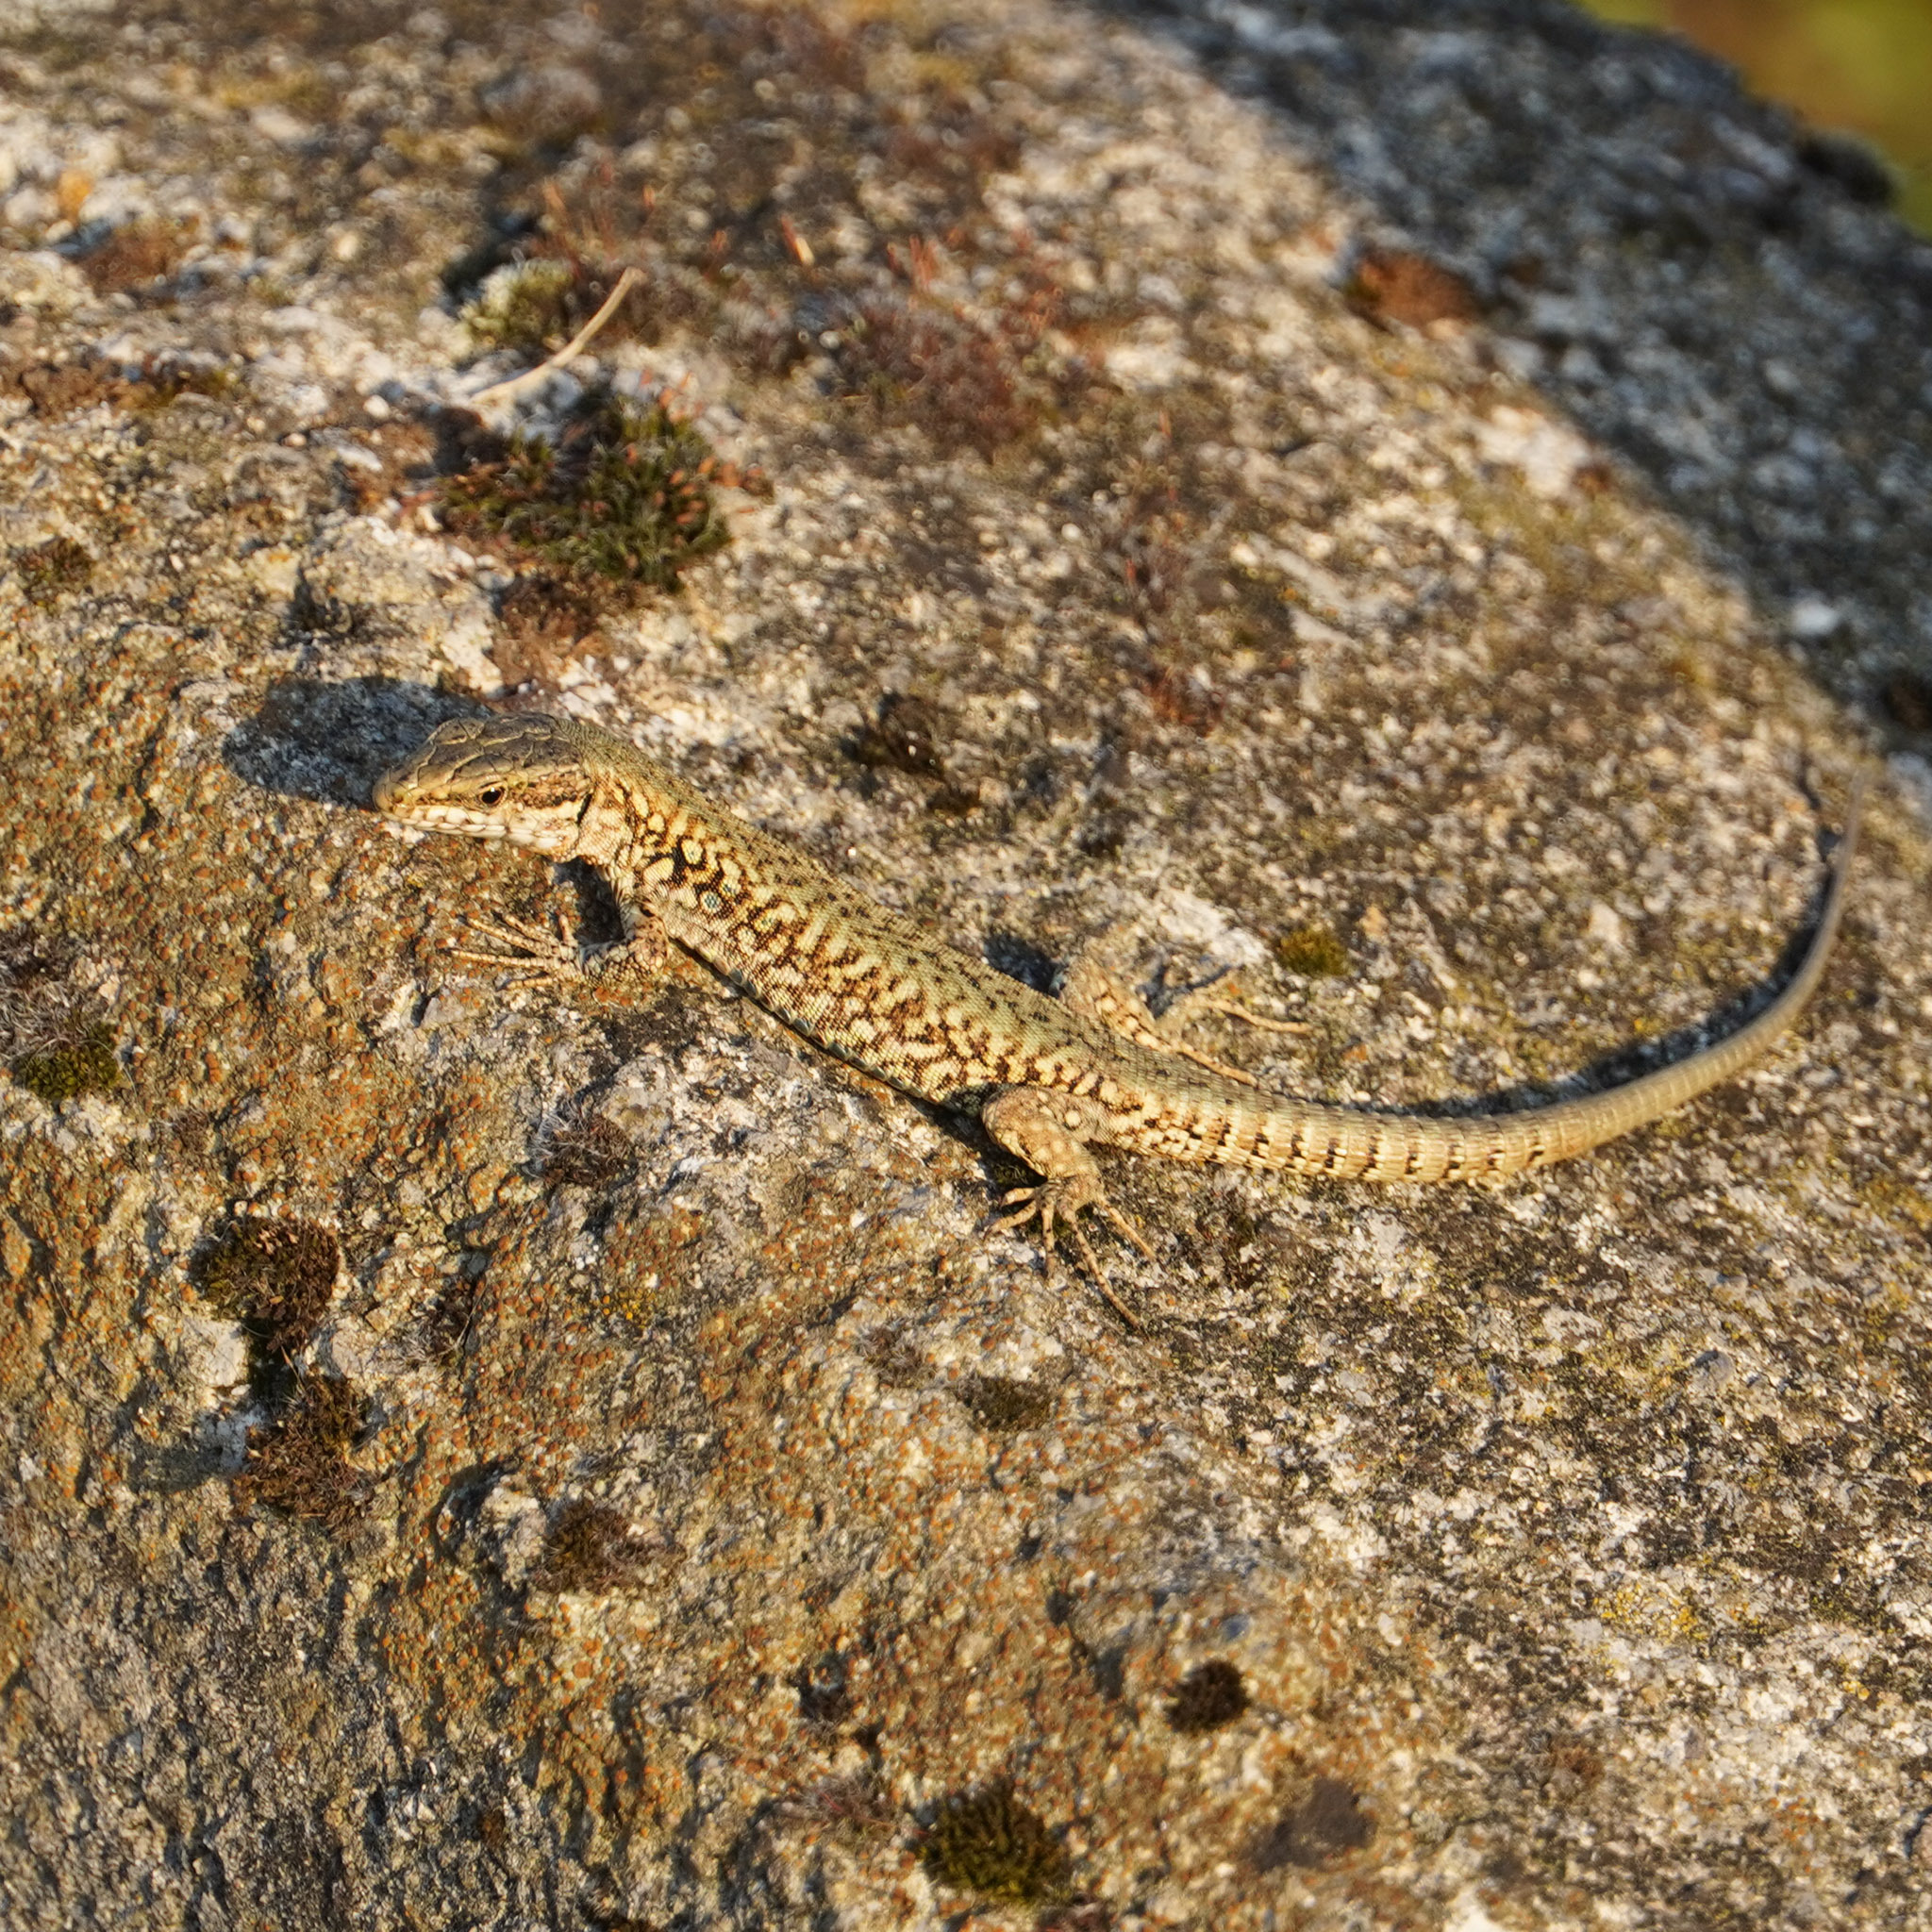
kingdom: Animalia
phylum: Chordata
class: Squamata
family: Lacertidae
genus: Podarcis
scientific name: Podarcis muralis
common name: Common wall lizard
